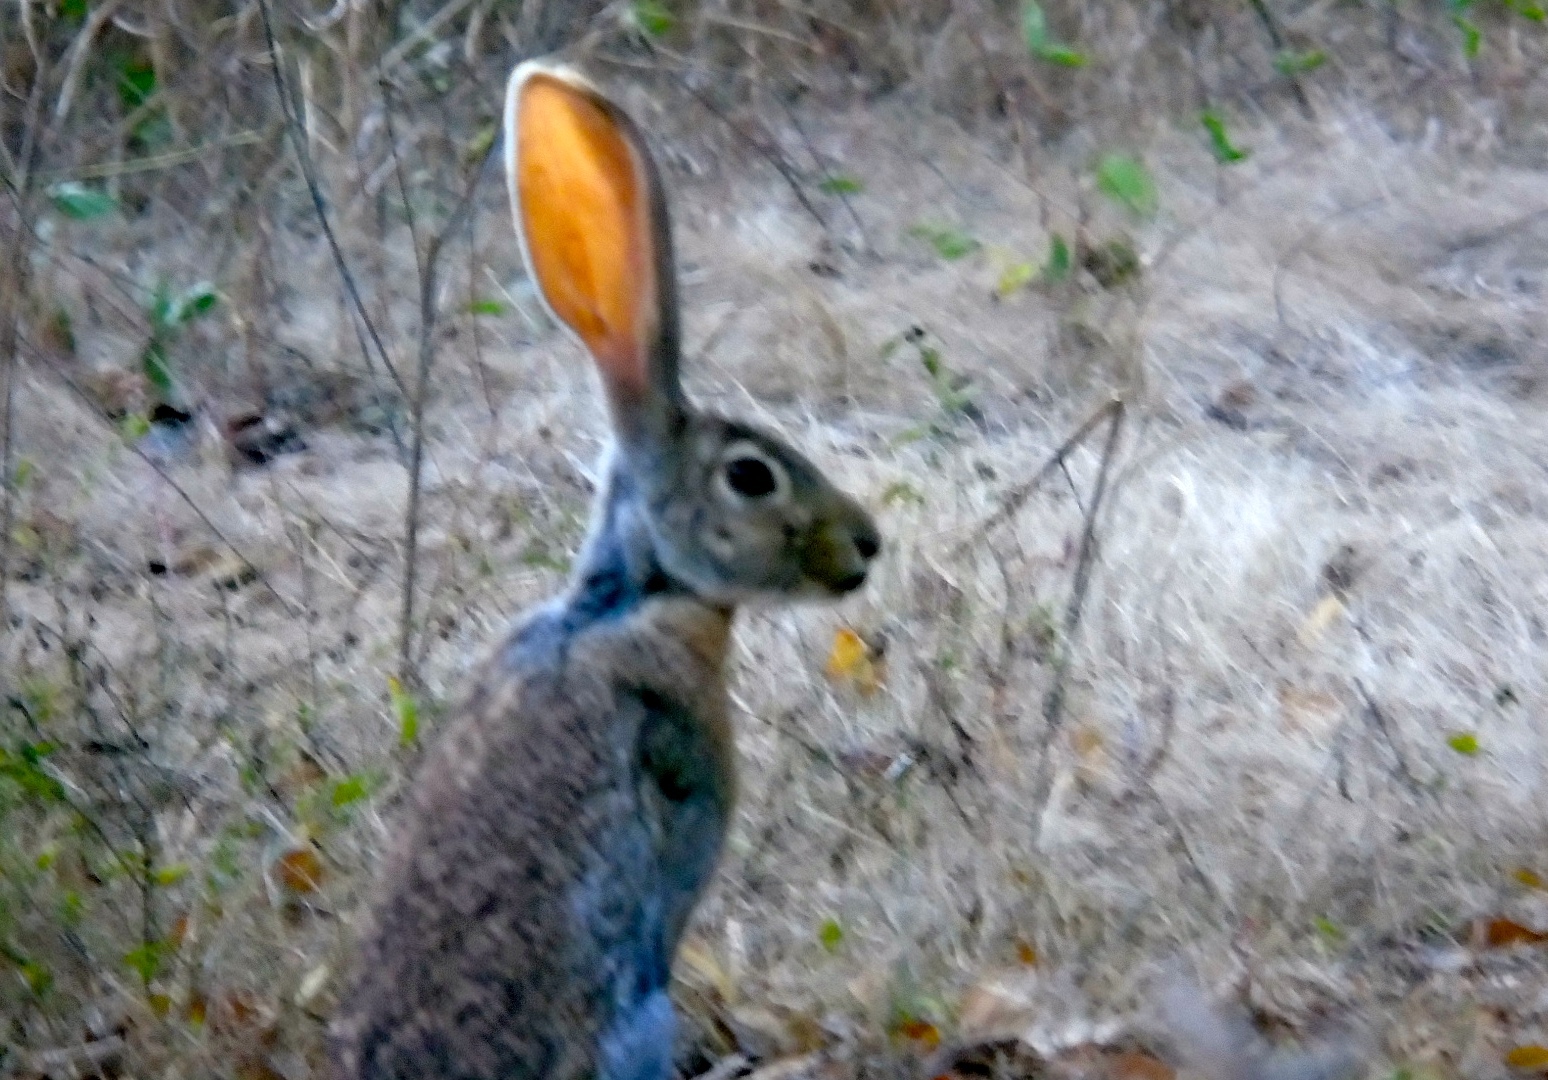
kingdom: Animalia
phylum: Chordata
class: Mammalia
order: Lagomorpha
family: Leporidae
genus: Lepus
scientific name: Lepus alleni
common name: Antelope jackrabbit
